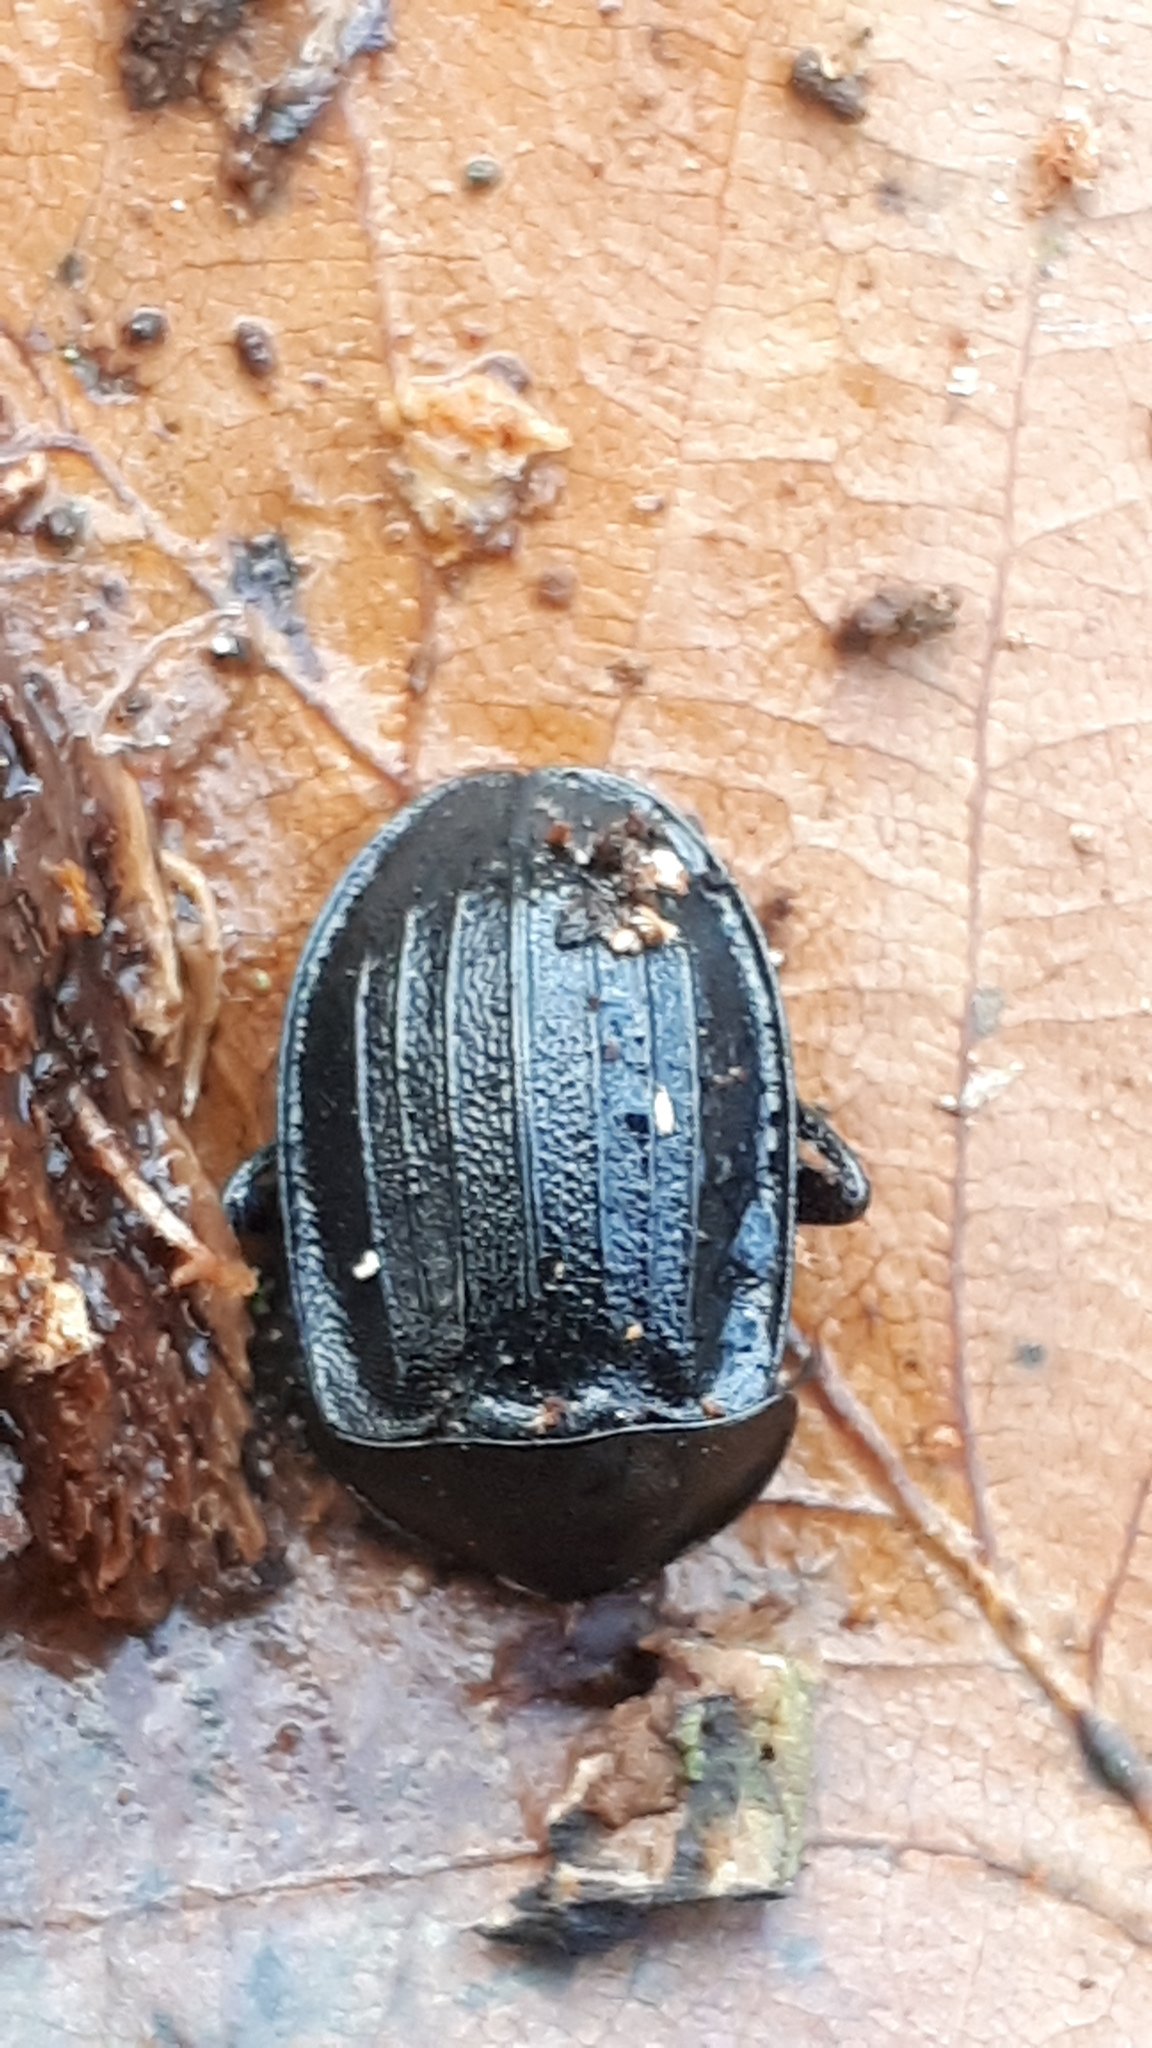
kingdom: Animalia
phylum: Arthropoda
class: Insecta
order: Coleoptera
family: Staphylinidae
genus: Silpha
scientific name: Silpha atrata
